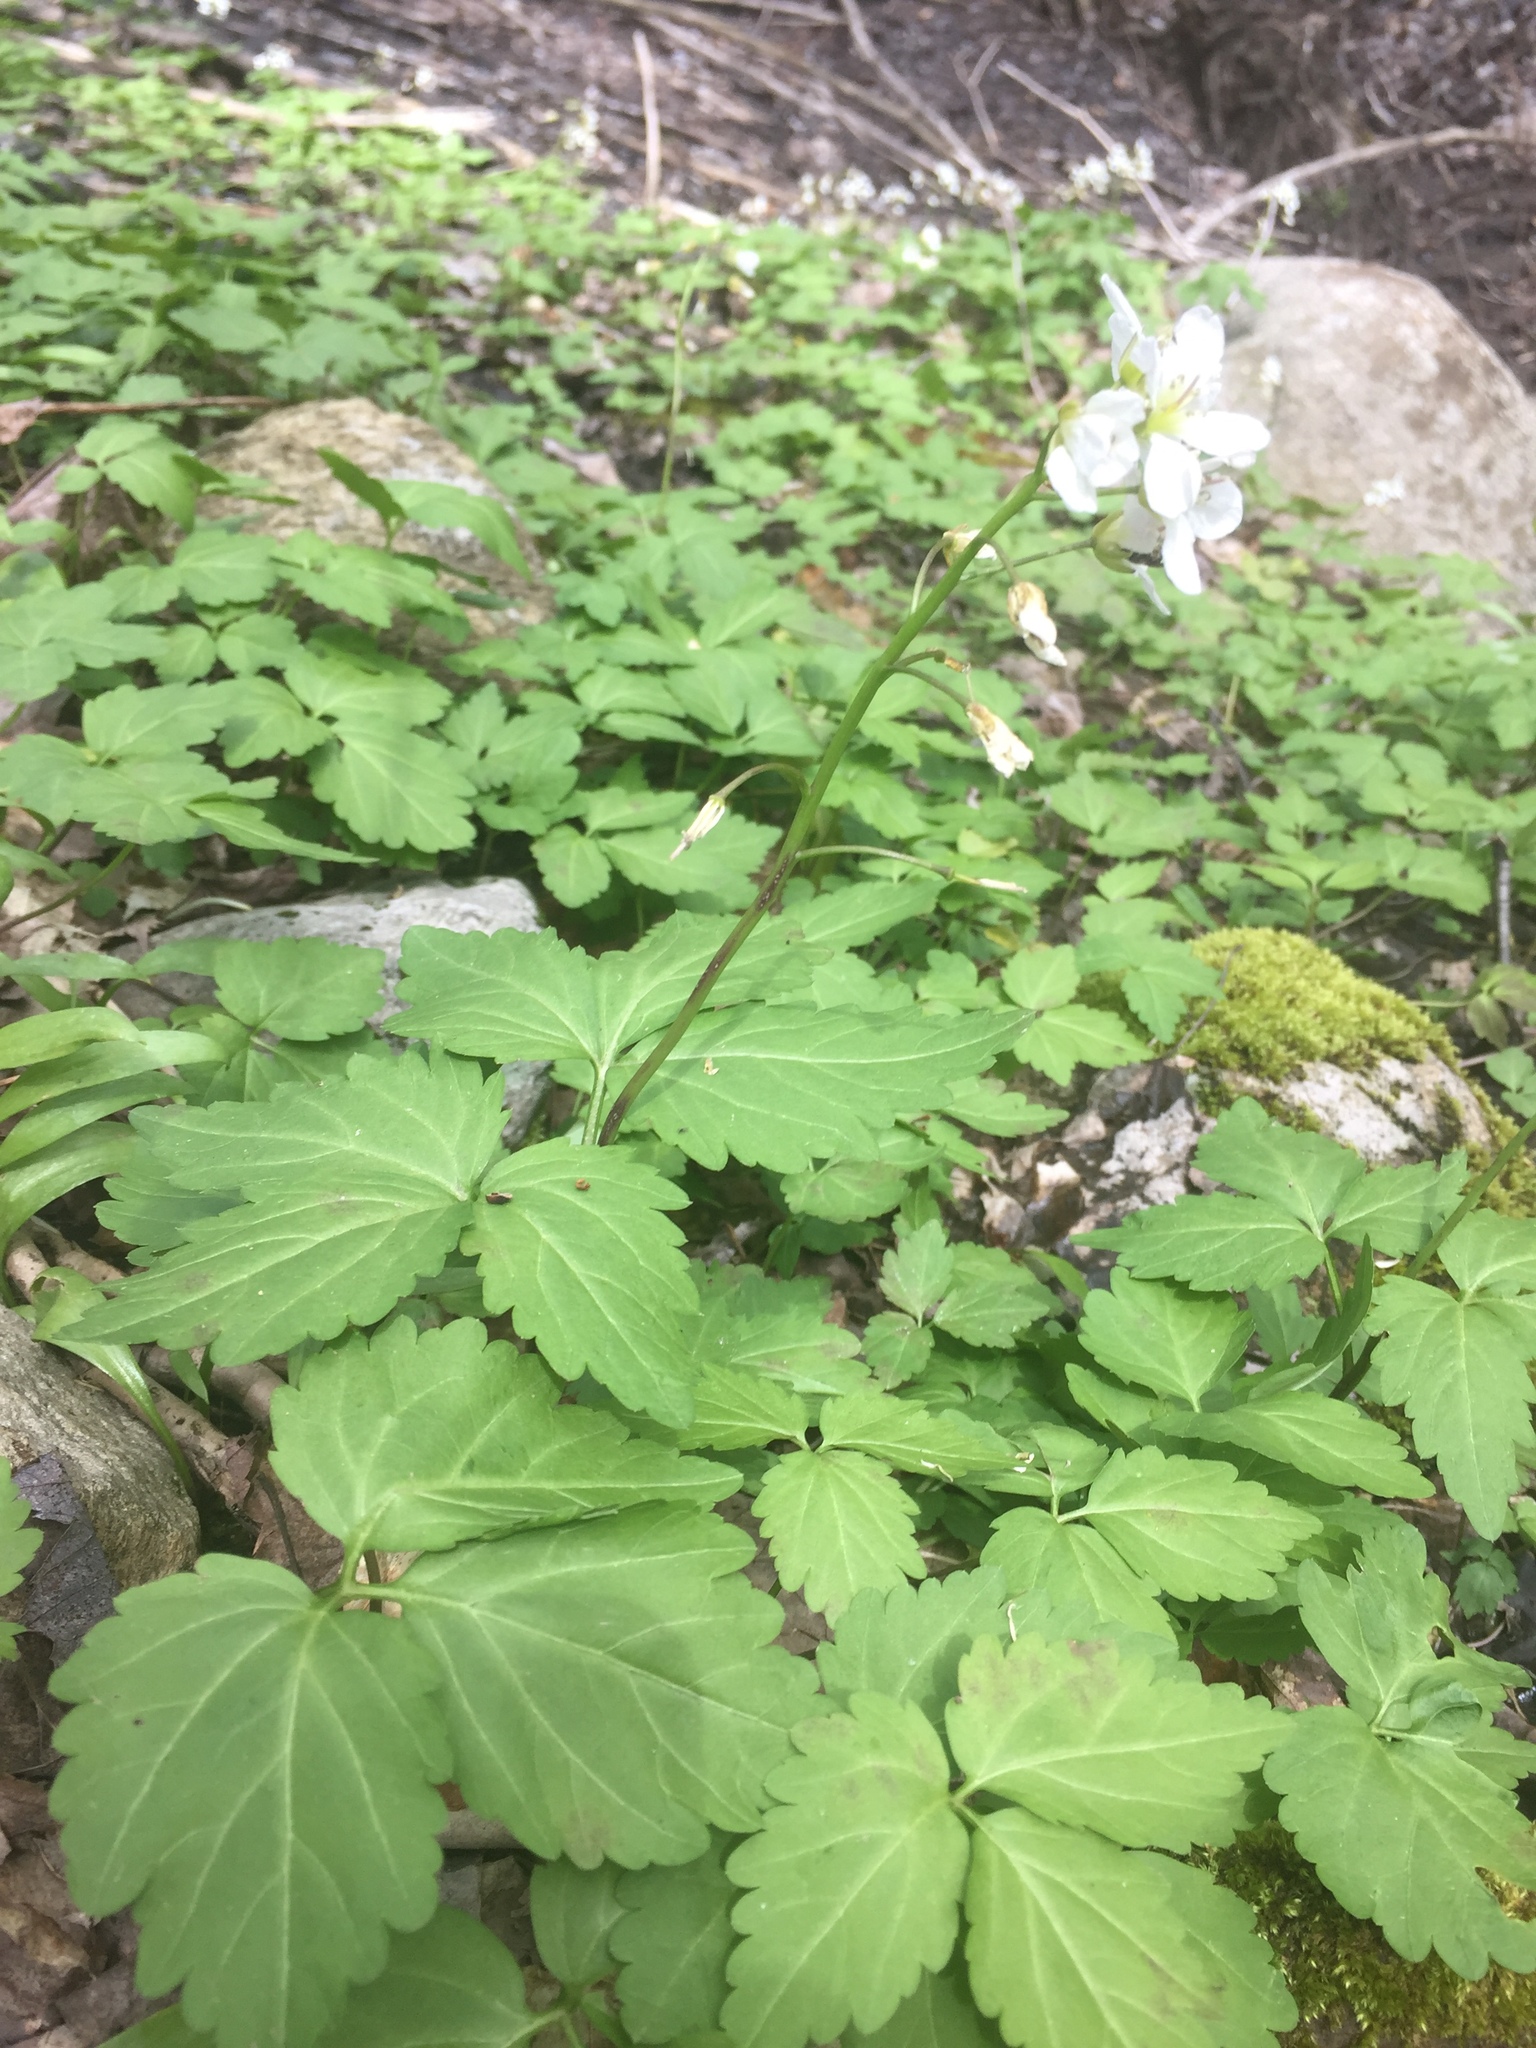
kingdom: Plantae
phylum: Tracheophyta
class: Magnoliopsida
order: Brassicales
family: Brassicaceae
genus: Cardamine
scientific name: Cardamine diphylla
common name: Broad-leaved toothwort
